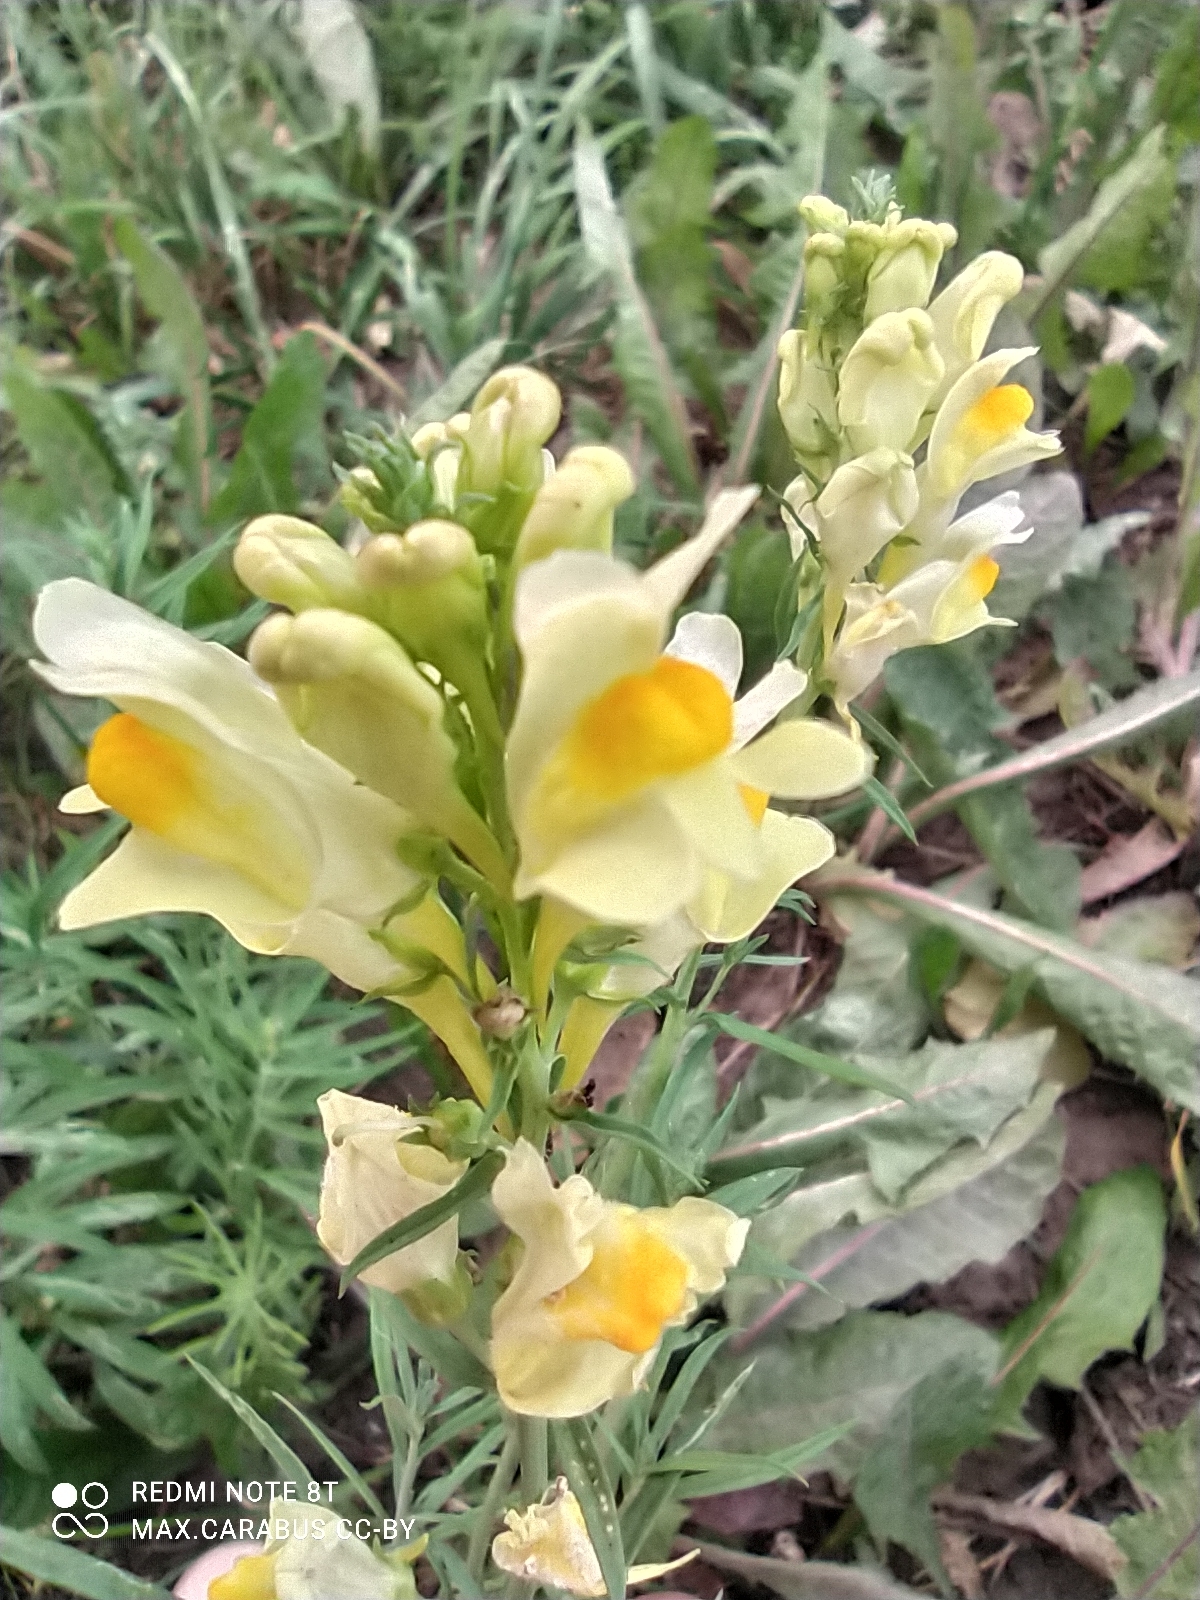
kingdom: Plantae
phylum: Tracheophyta
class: Magnoliopsida
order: Lamiales
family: Plantaginaceae
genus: Linaria
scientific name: Linaria vulgaris
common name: Butter and eggs
